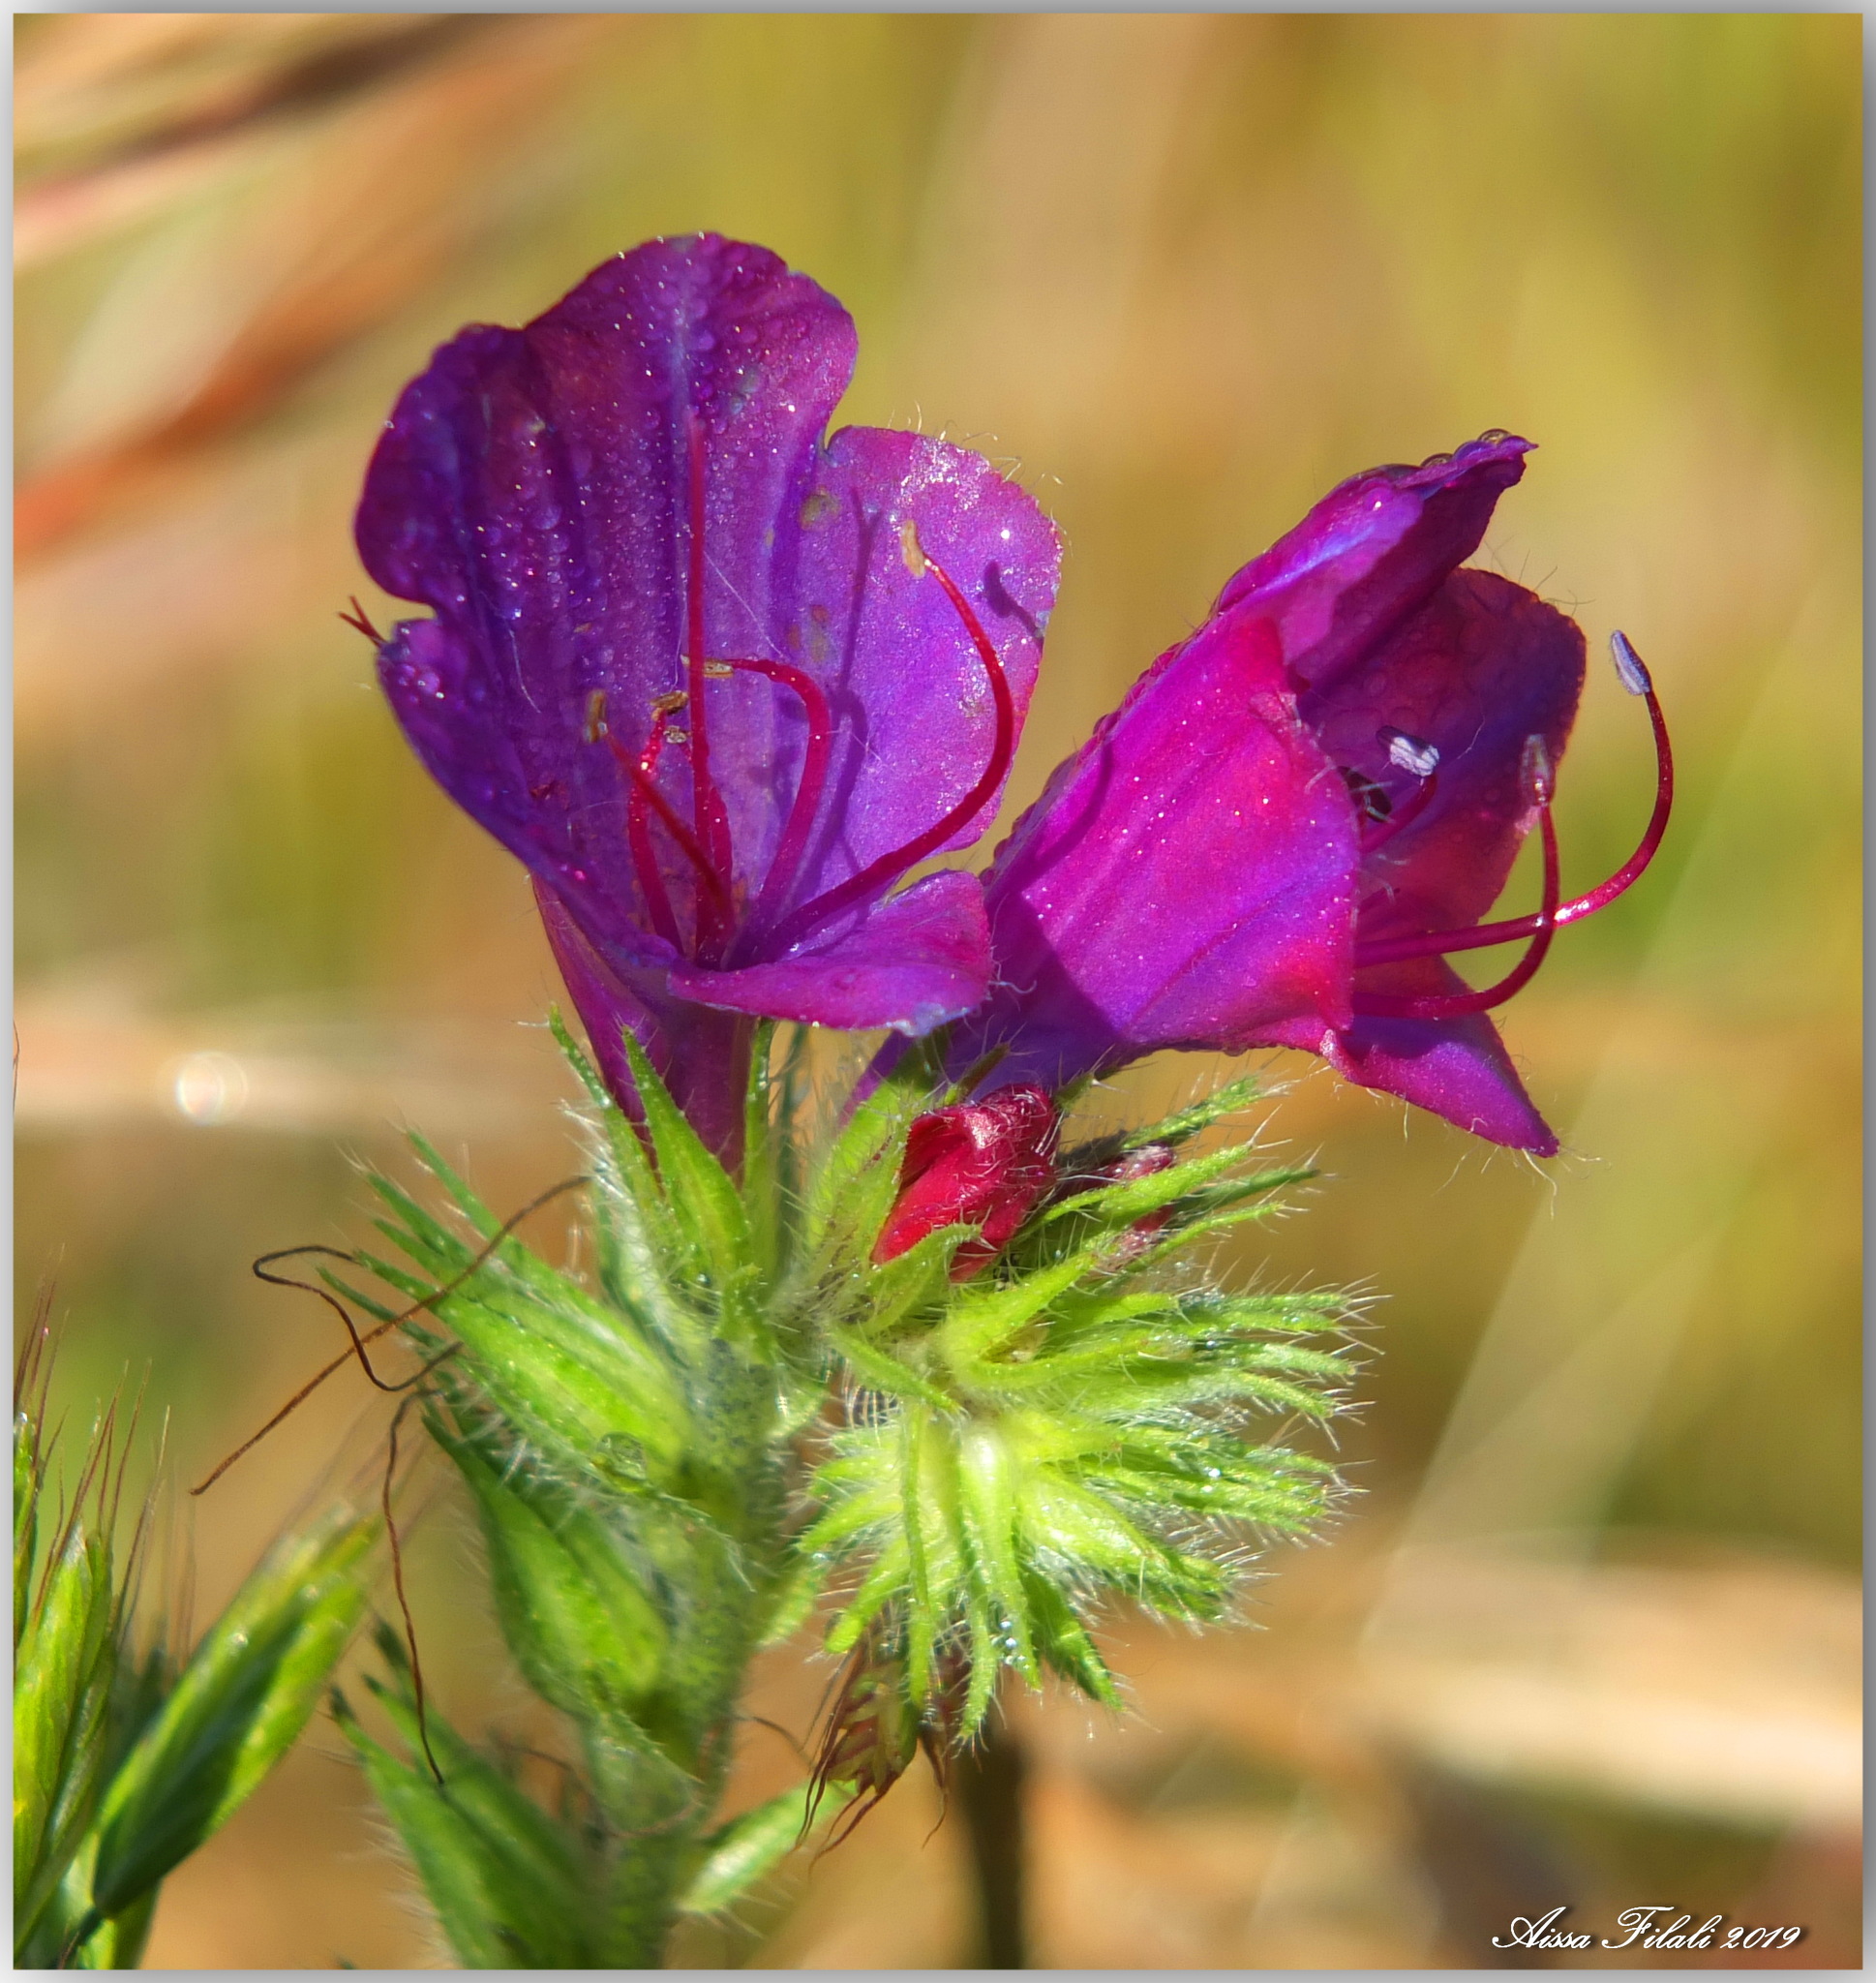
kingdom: Plantae
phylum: Tracheophyta
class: Magnoliopsida
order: Boraginales
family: Boraginaceae
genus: Echium
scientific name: Echium plantagineum
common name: Purple viper's-bugloss
